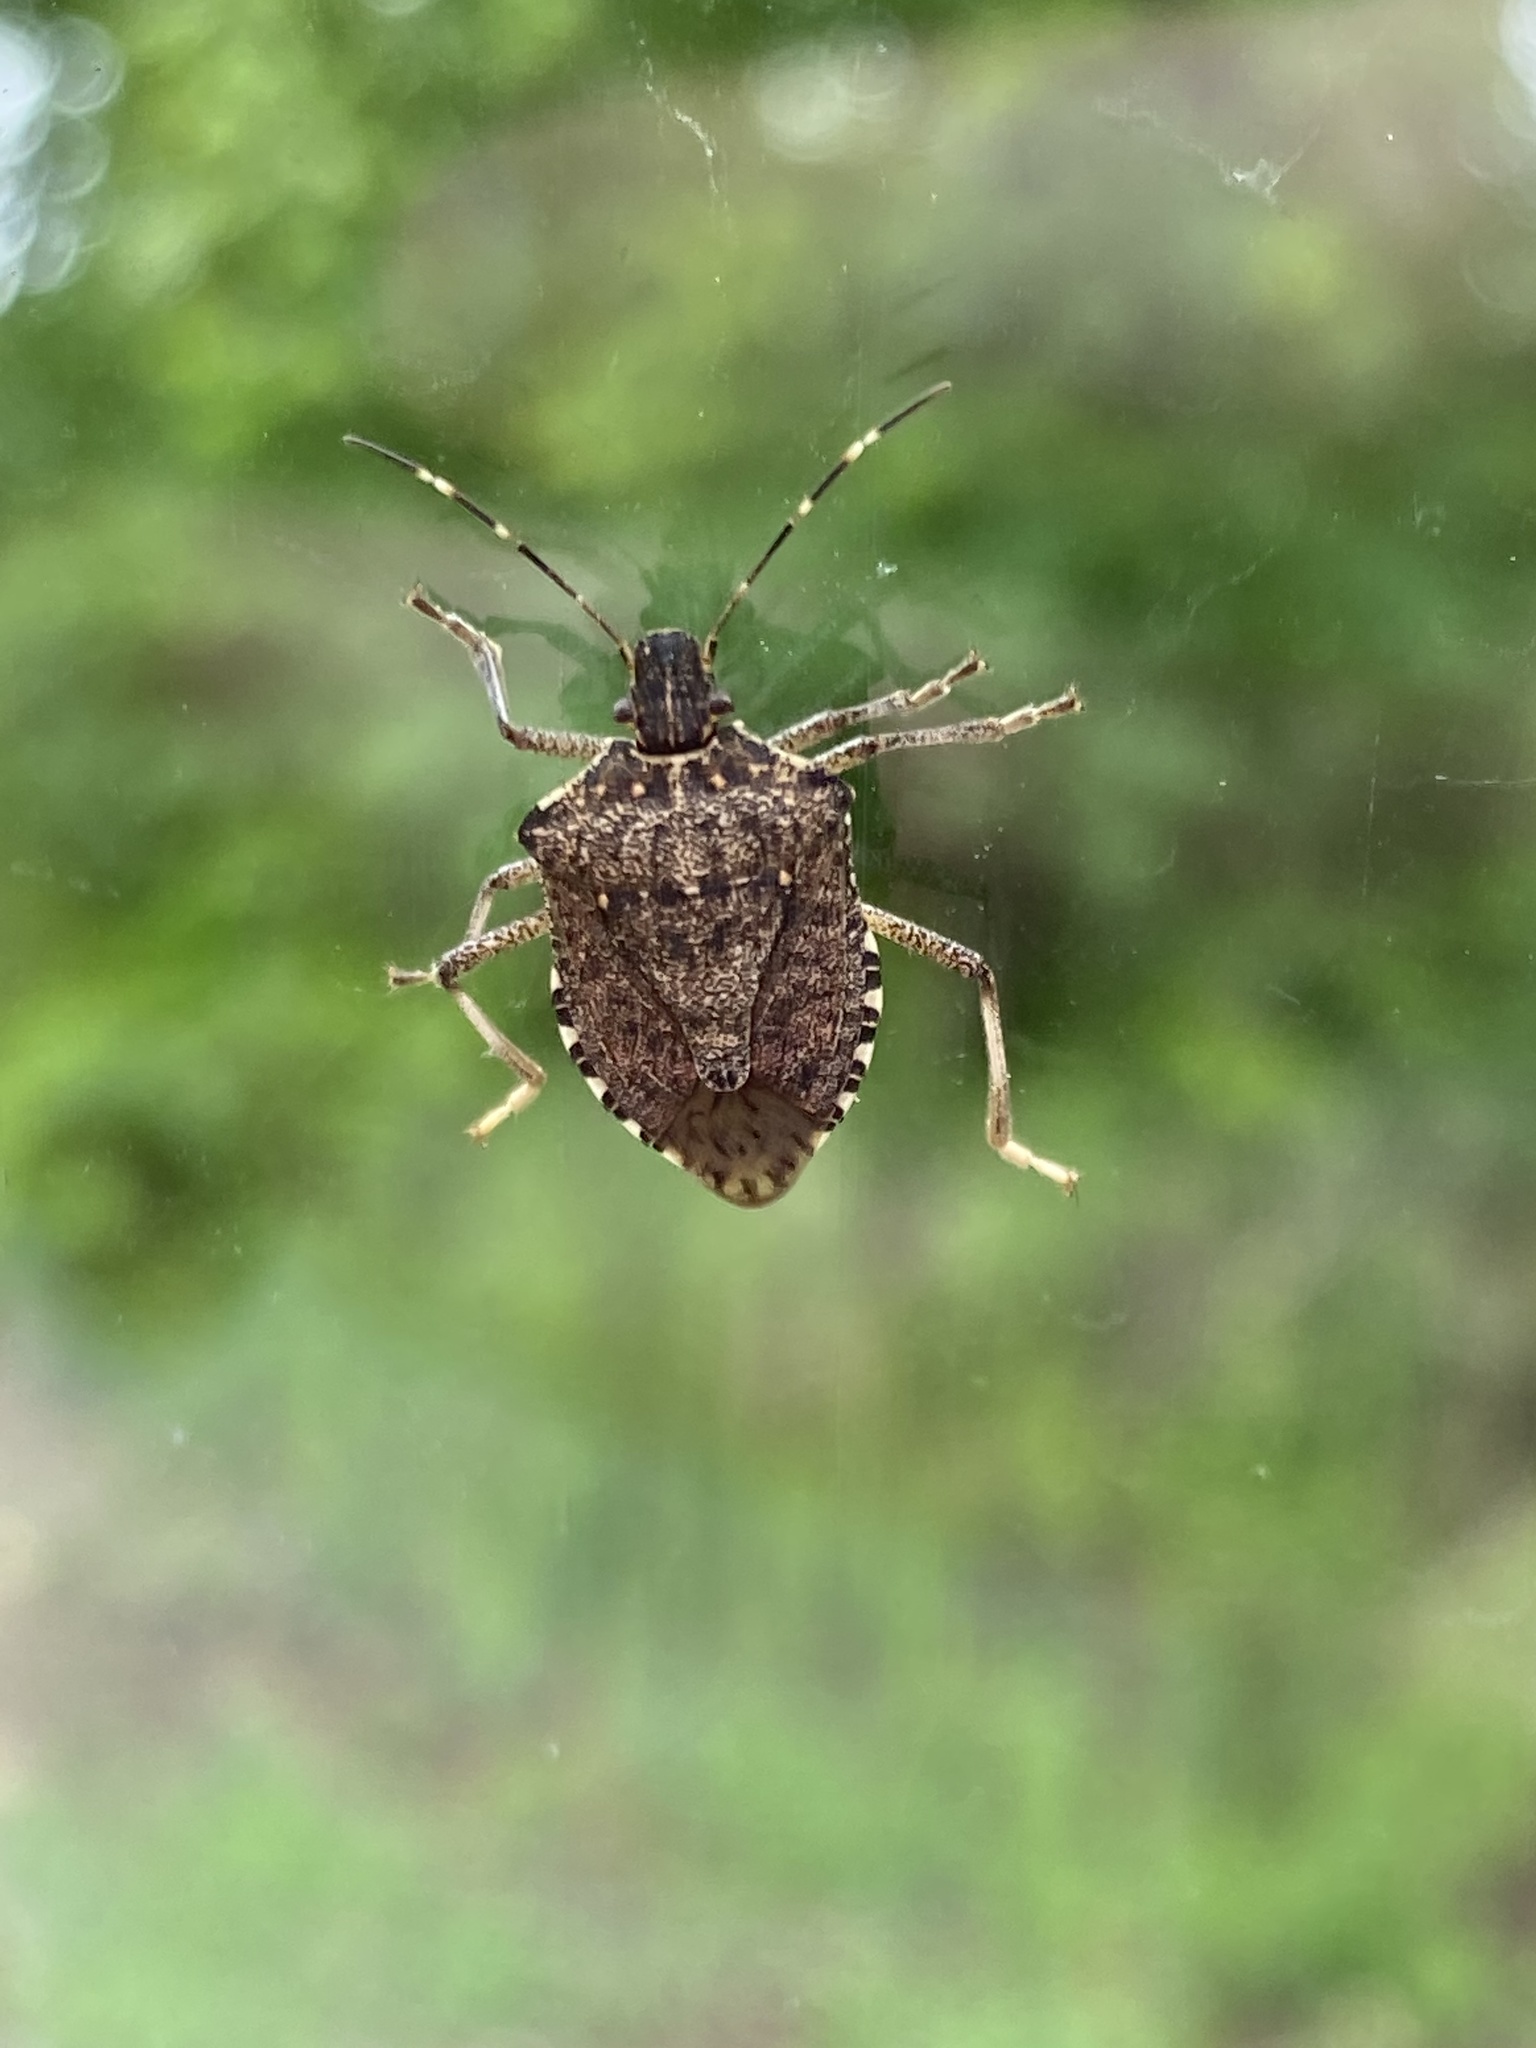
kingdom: Animalia
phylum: Arthropoda
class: Insecta
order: Hemiptera
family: Pentatomidae
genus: Halyomorpha
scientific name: Halyomorpha halys
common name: Brown marmorated stink bug
